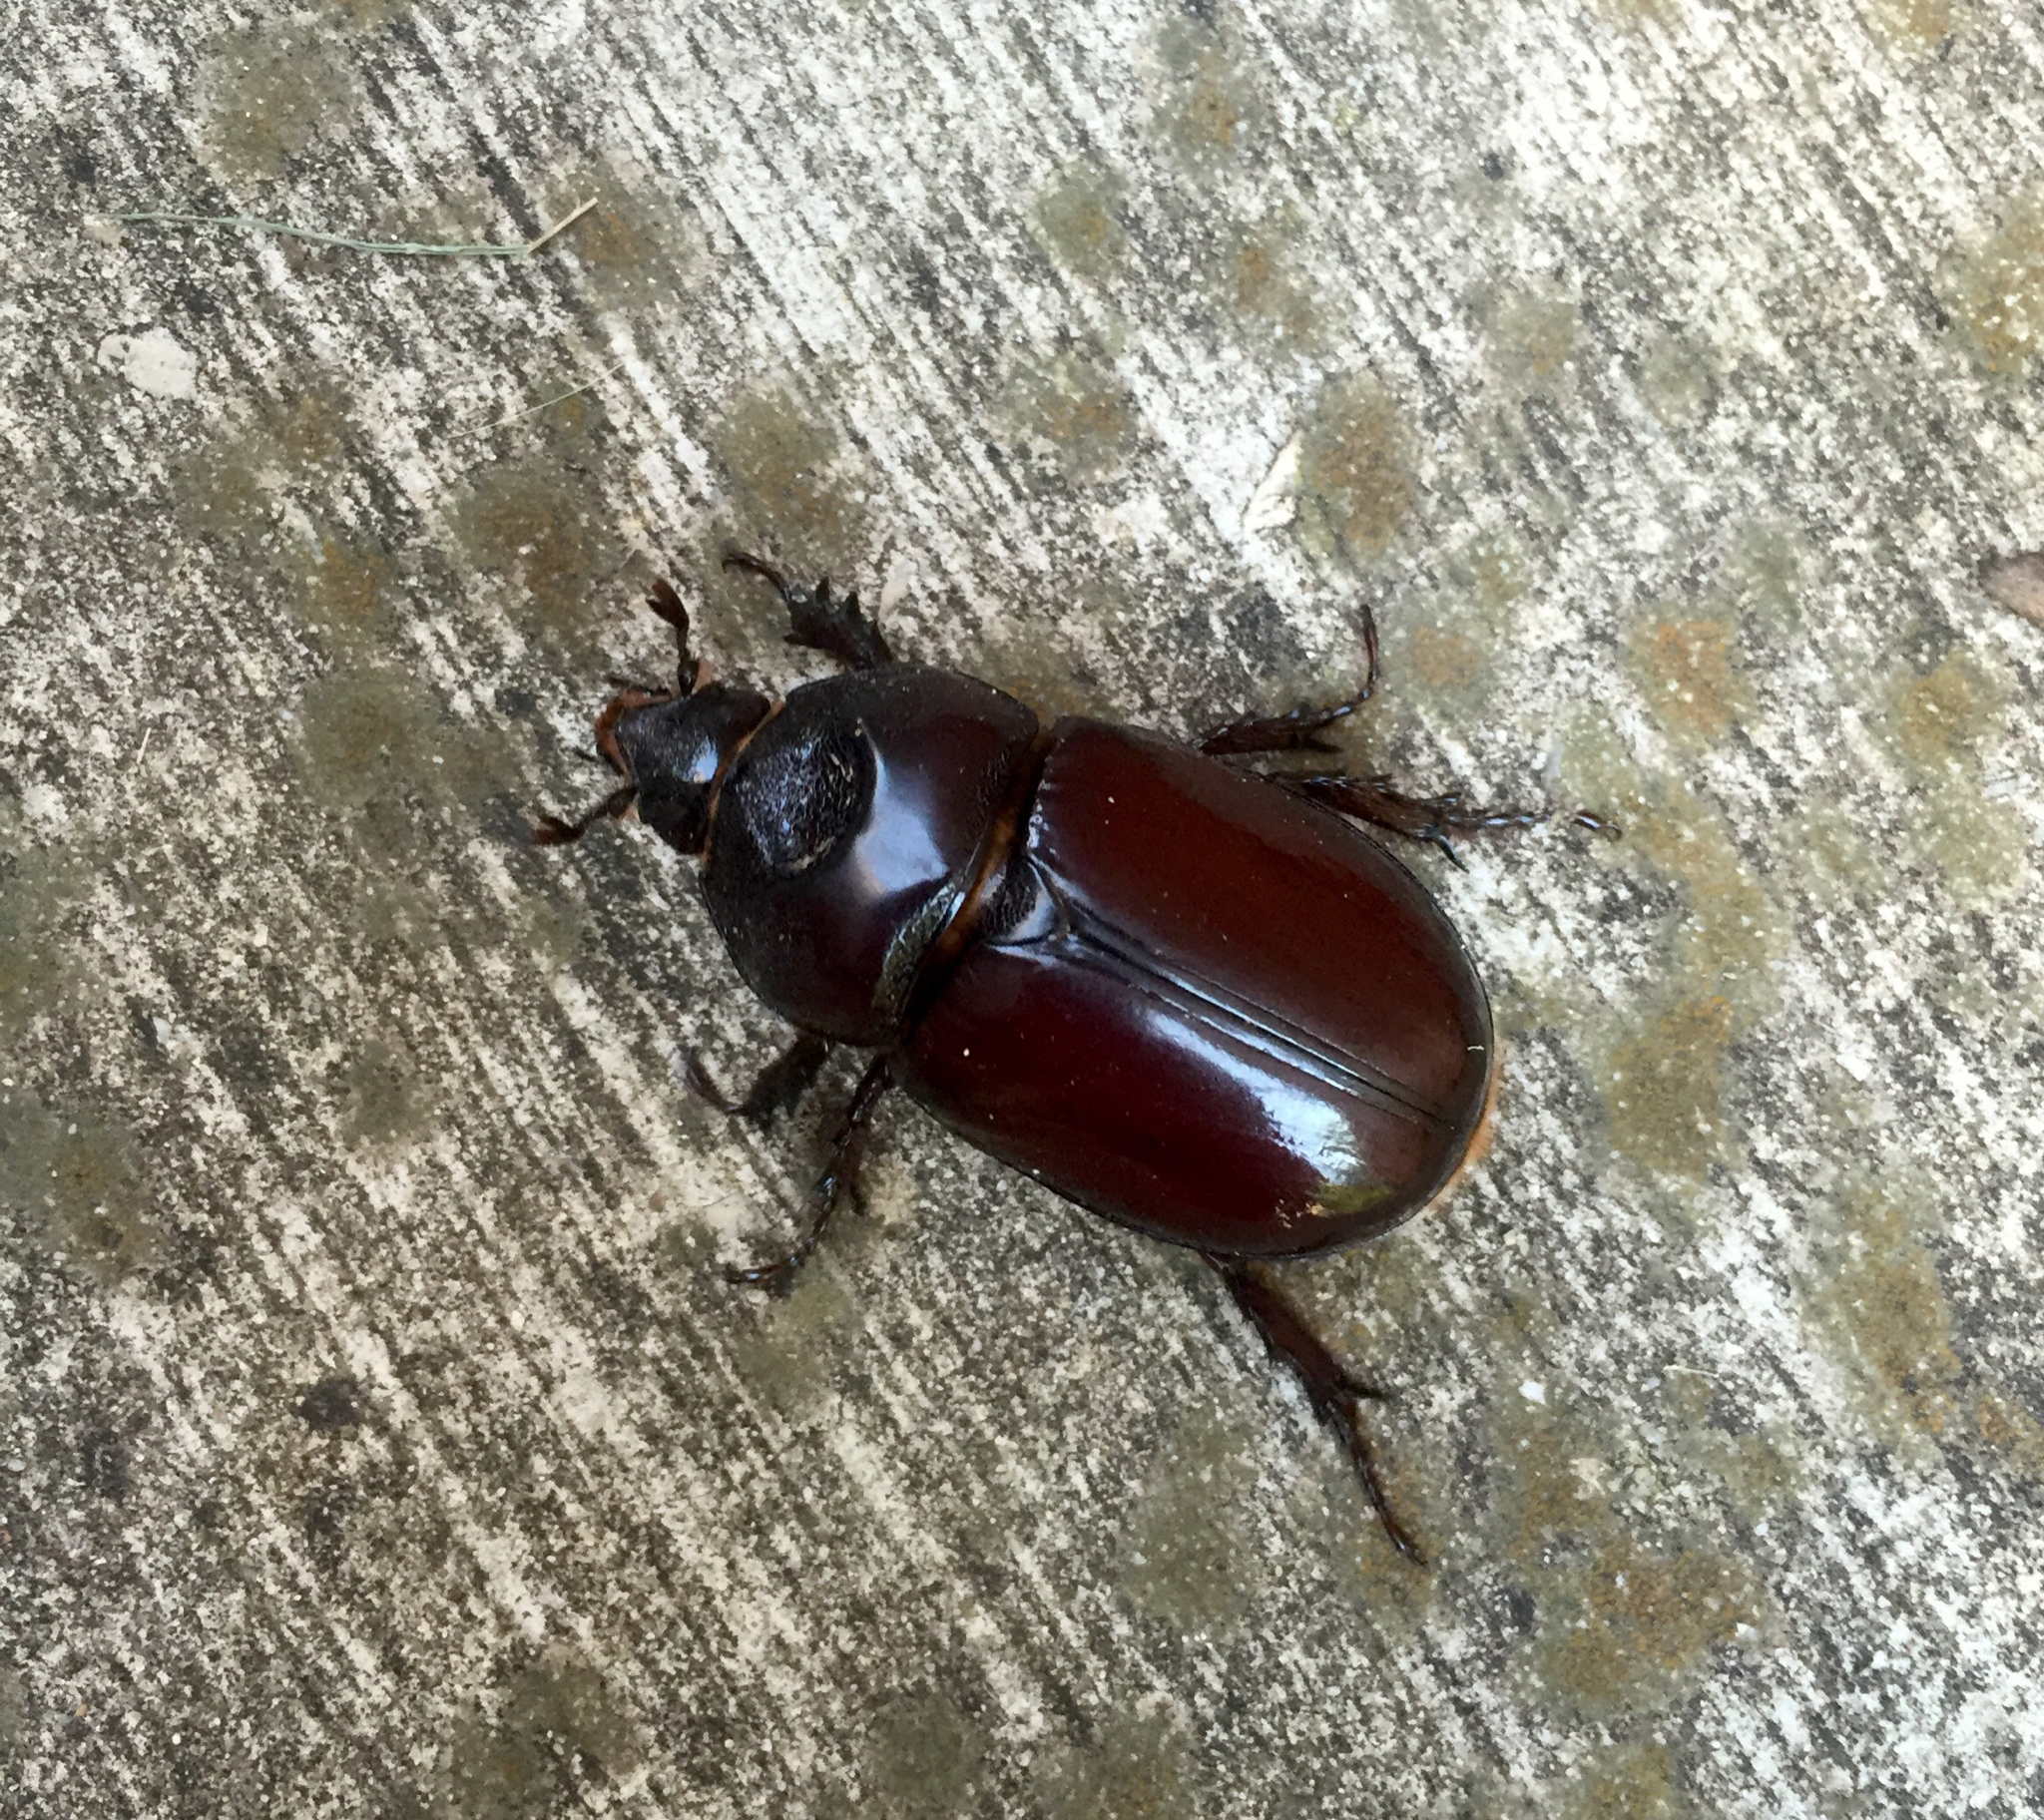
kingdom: Animalia
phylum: Arthropoda
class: Insecta
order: Coleoptera
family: Scarabaeidae
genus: Strategus
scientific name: Strategus aloeus
